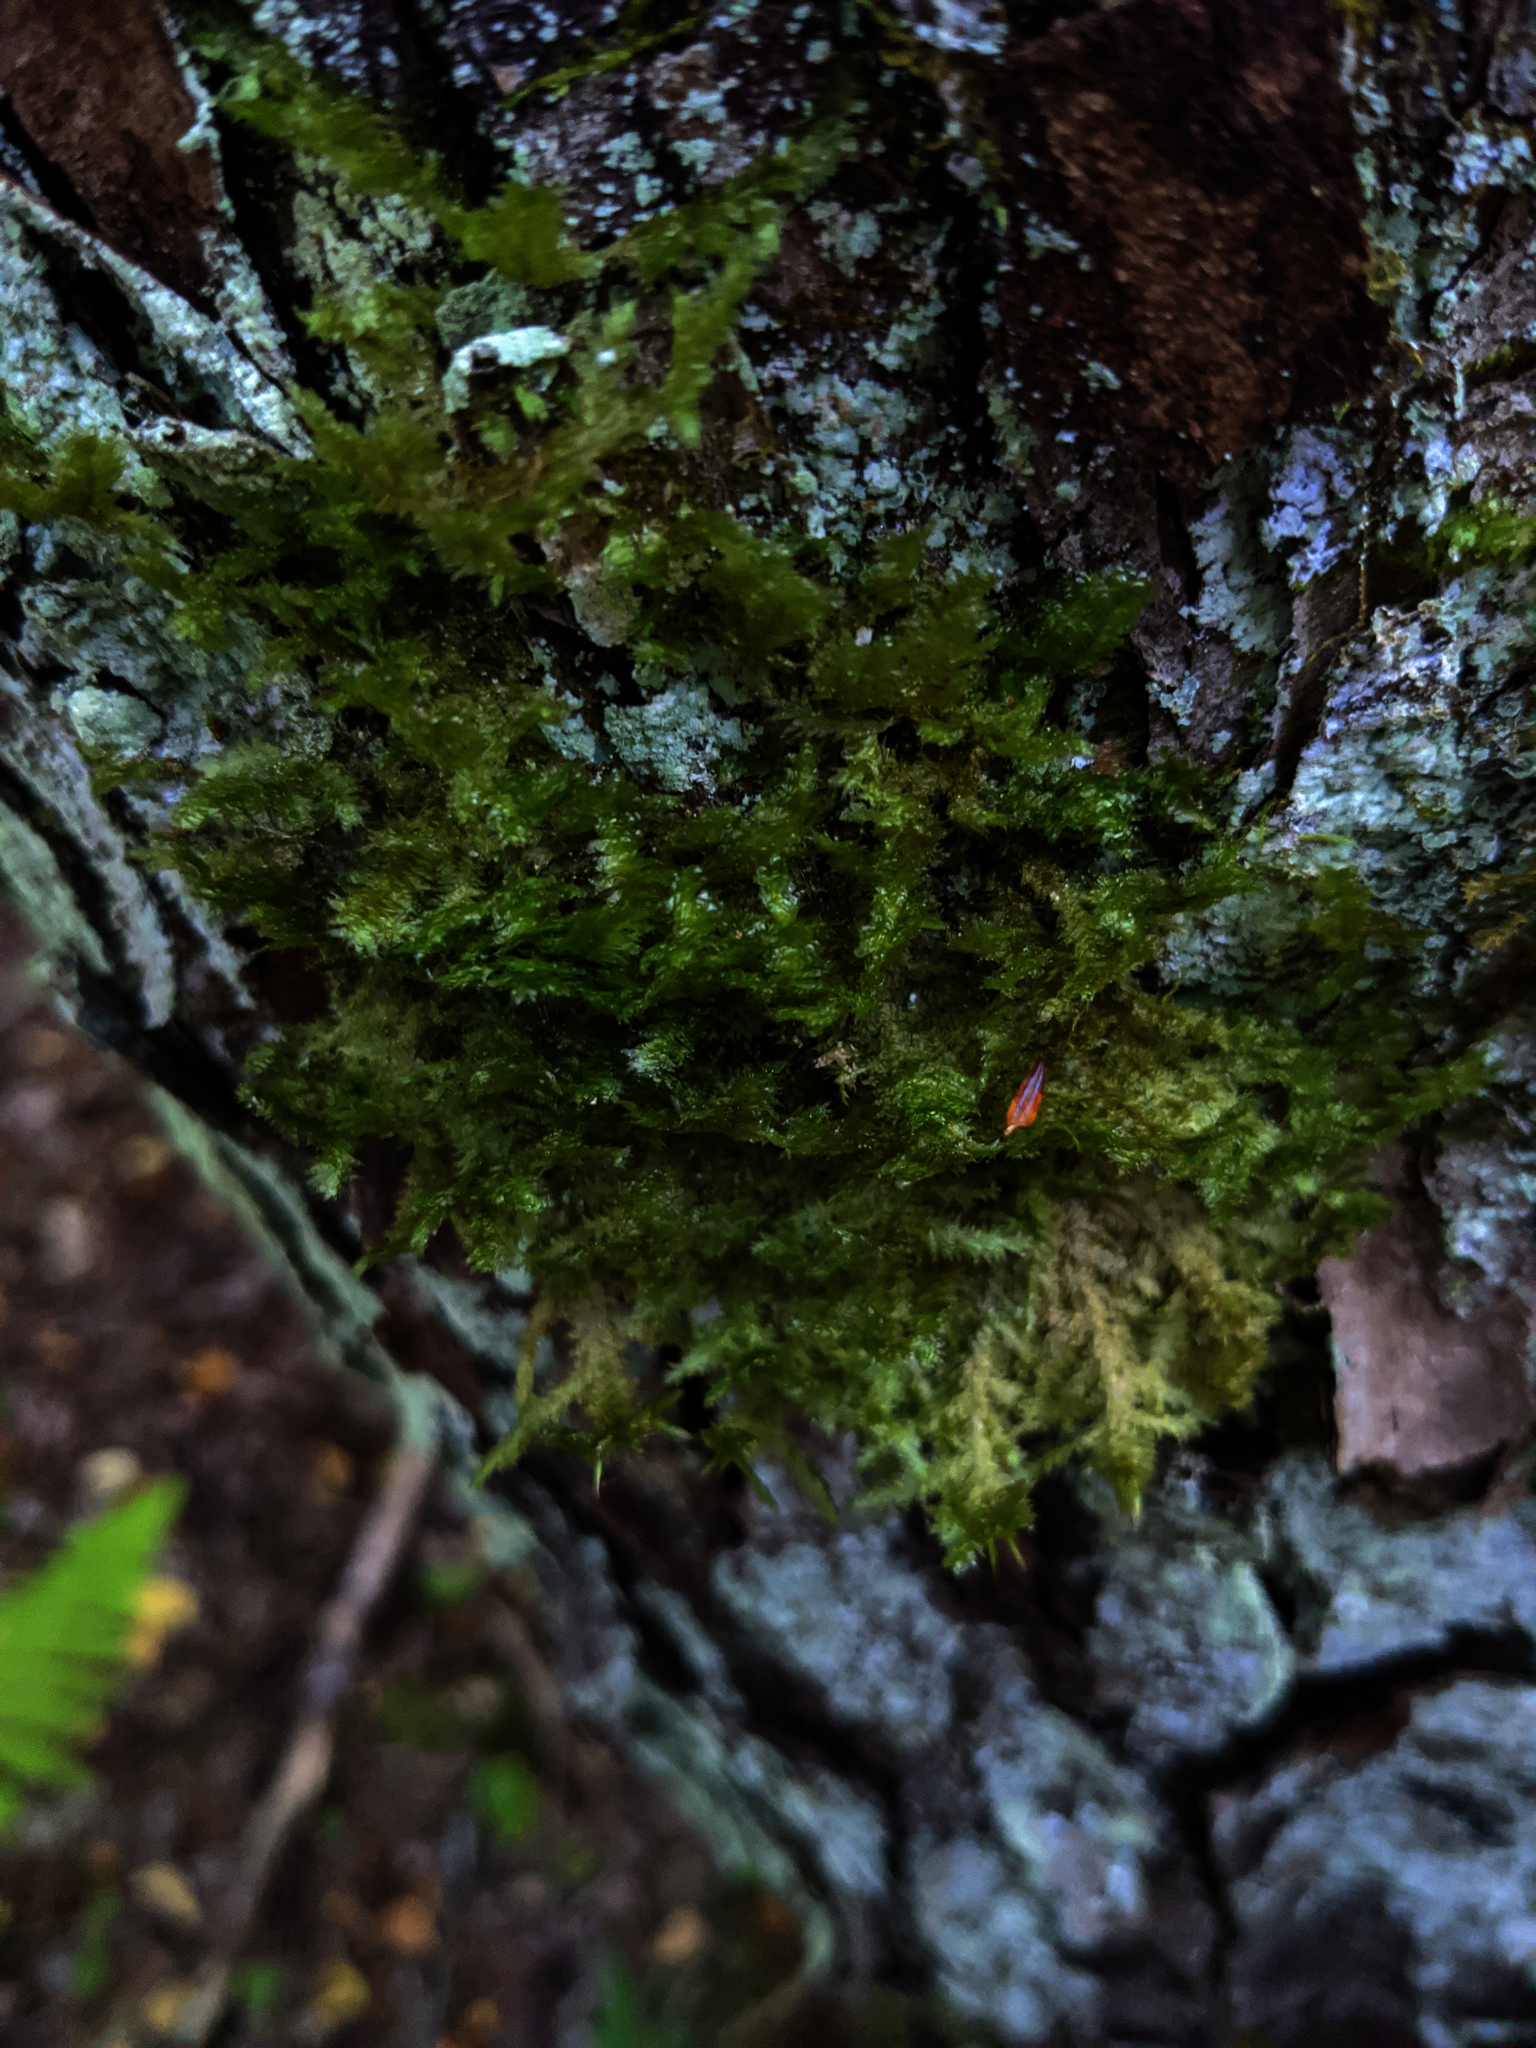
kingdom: Plantae
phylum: Bryophyta
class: Bryopsida
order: Hypnales
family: Neckeraceae
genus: Neckera
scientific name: Neckera pennata
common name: Feathery neckera
